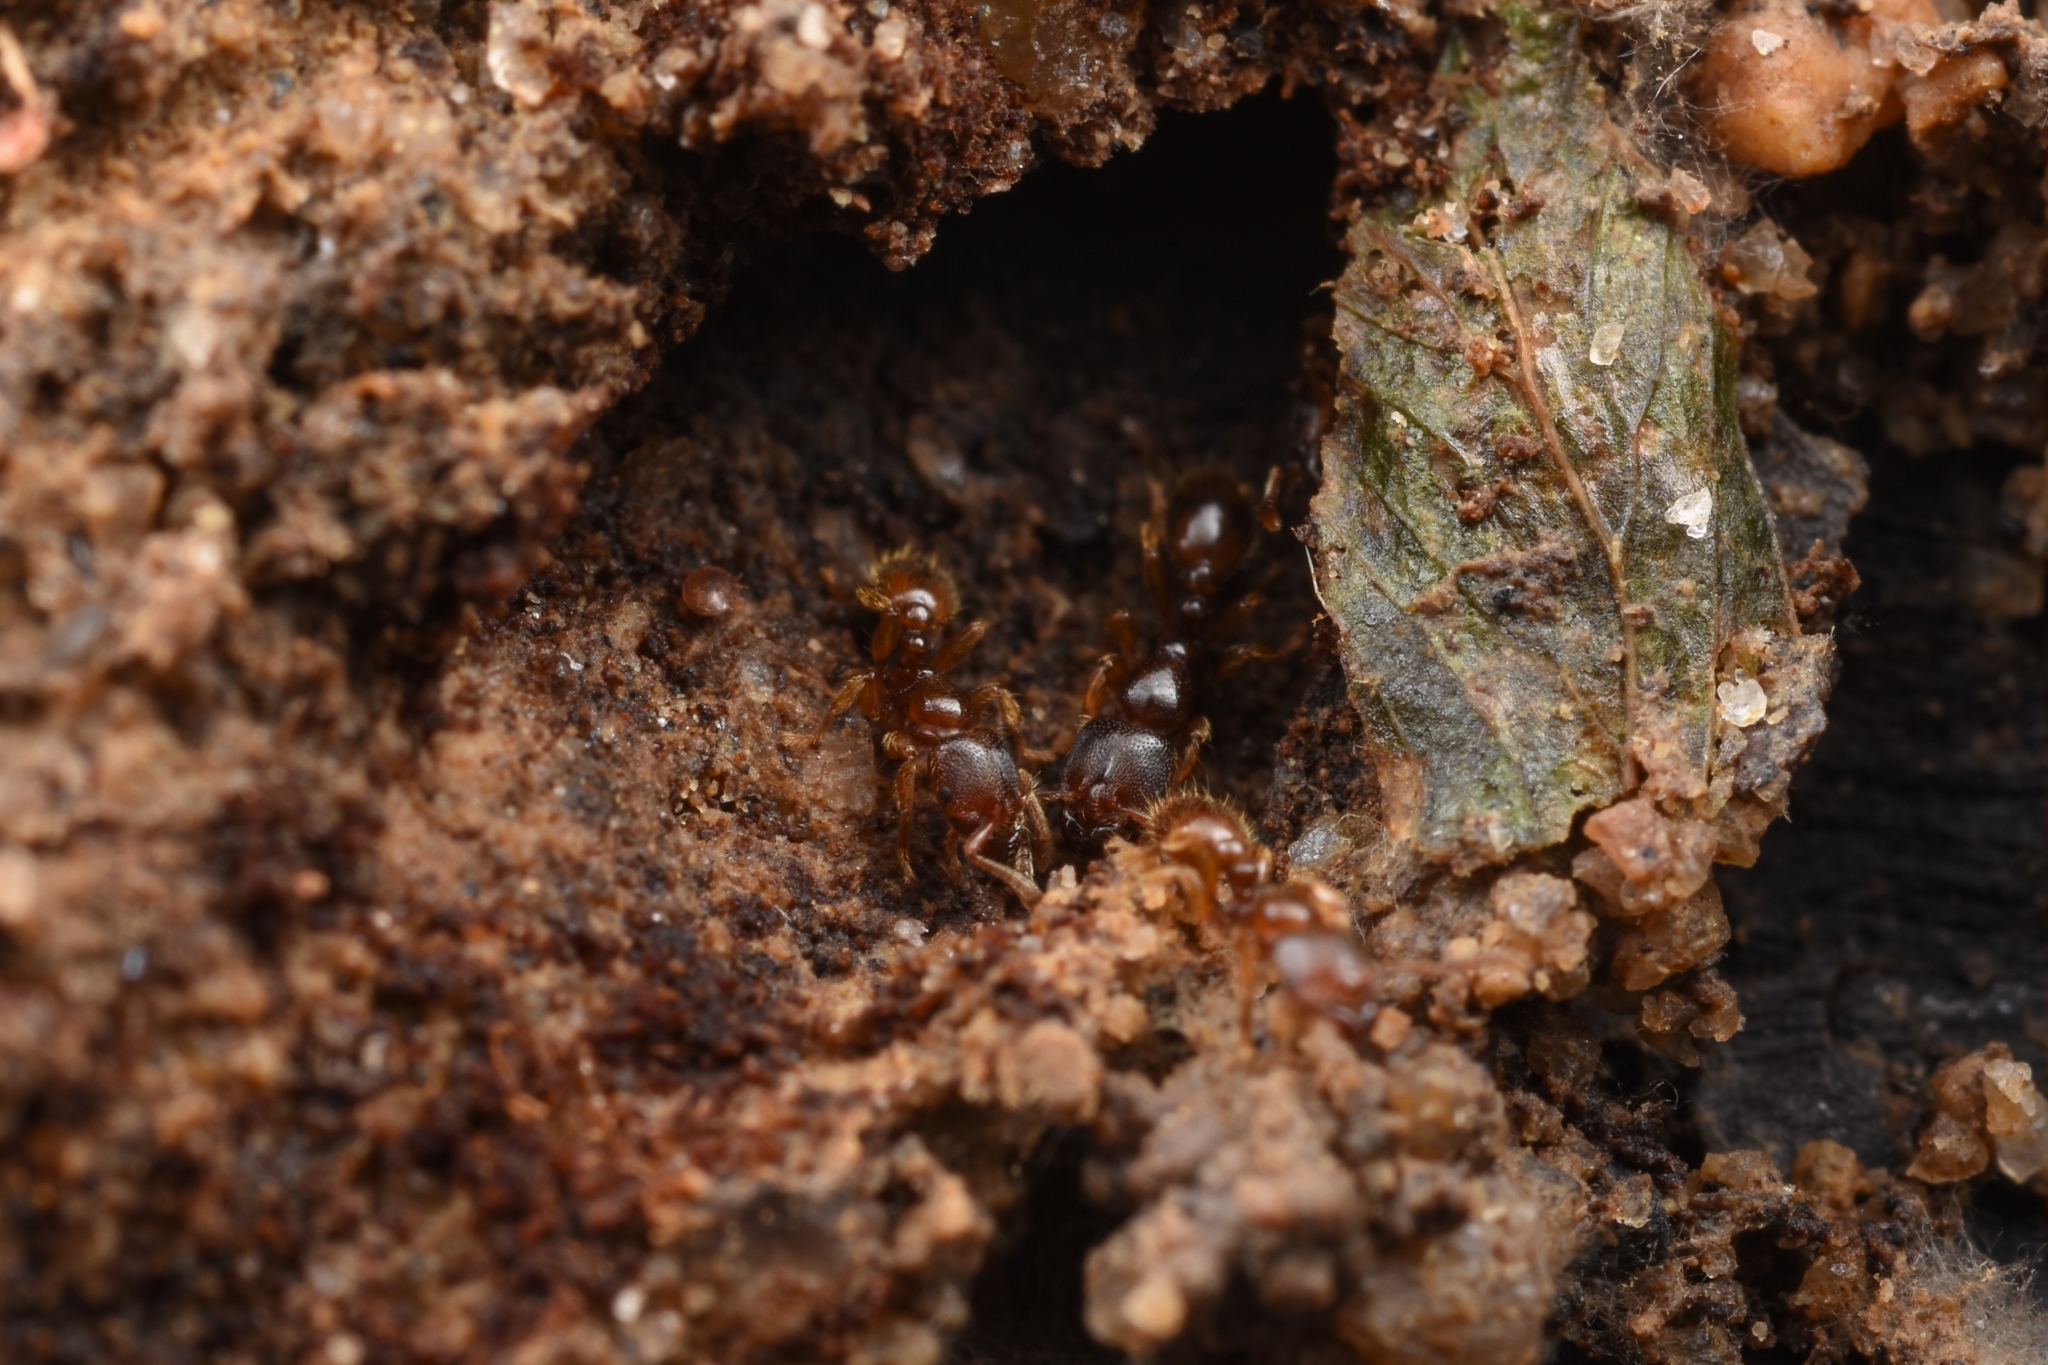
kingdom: Animalia
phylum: Arthropoda
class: Insecta
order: Hymenoptera
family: Formicidae
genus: Vollenhovia
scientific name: Vollenhovia brevicornis
